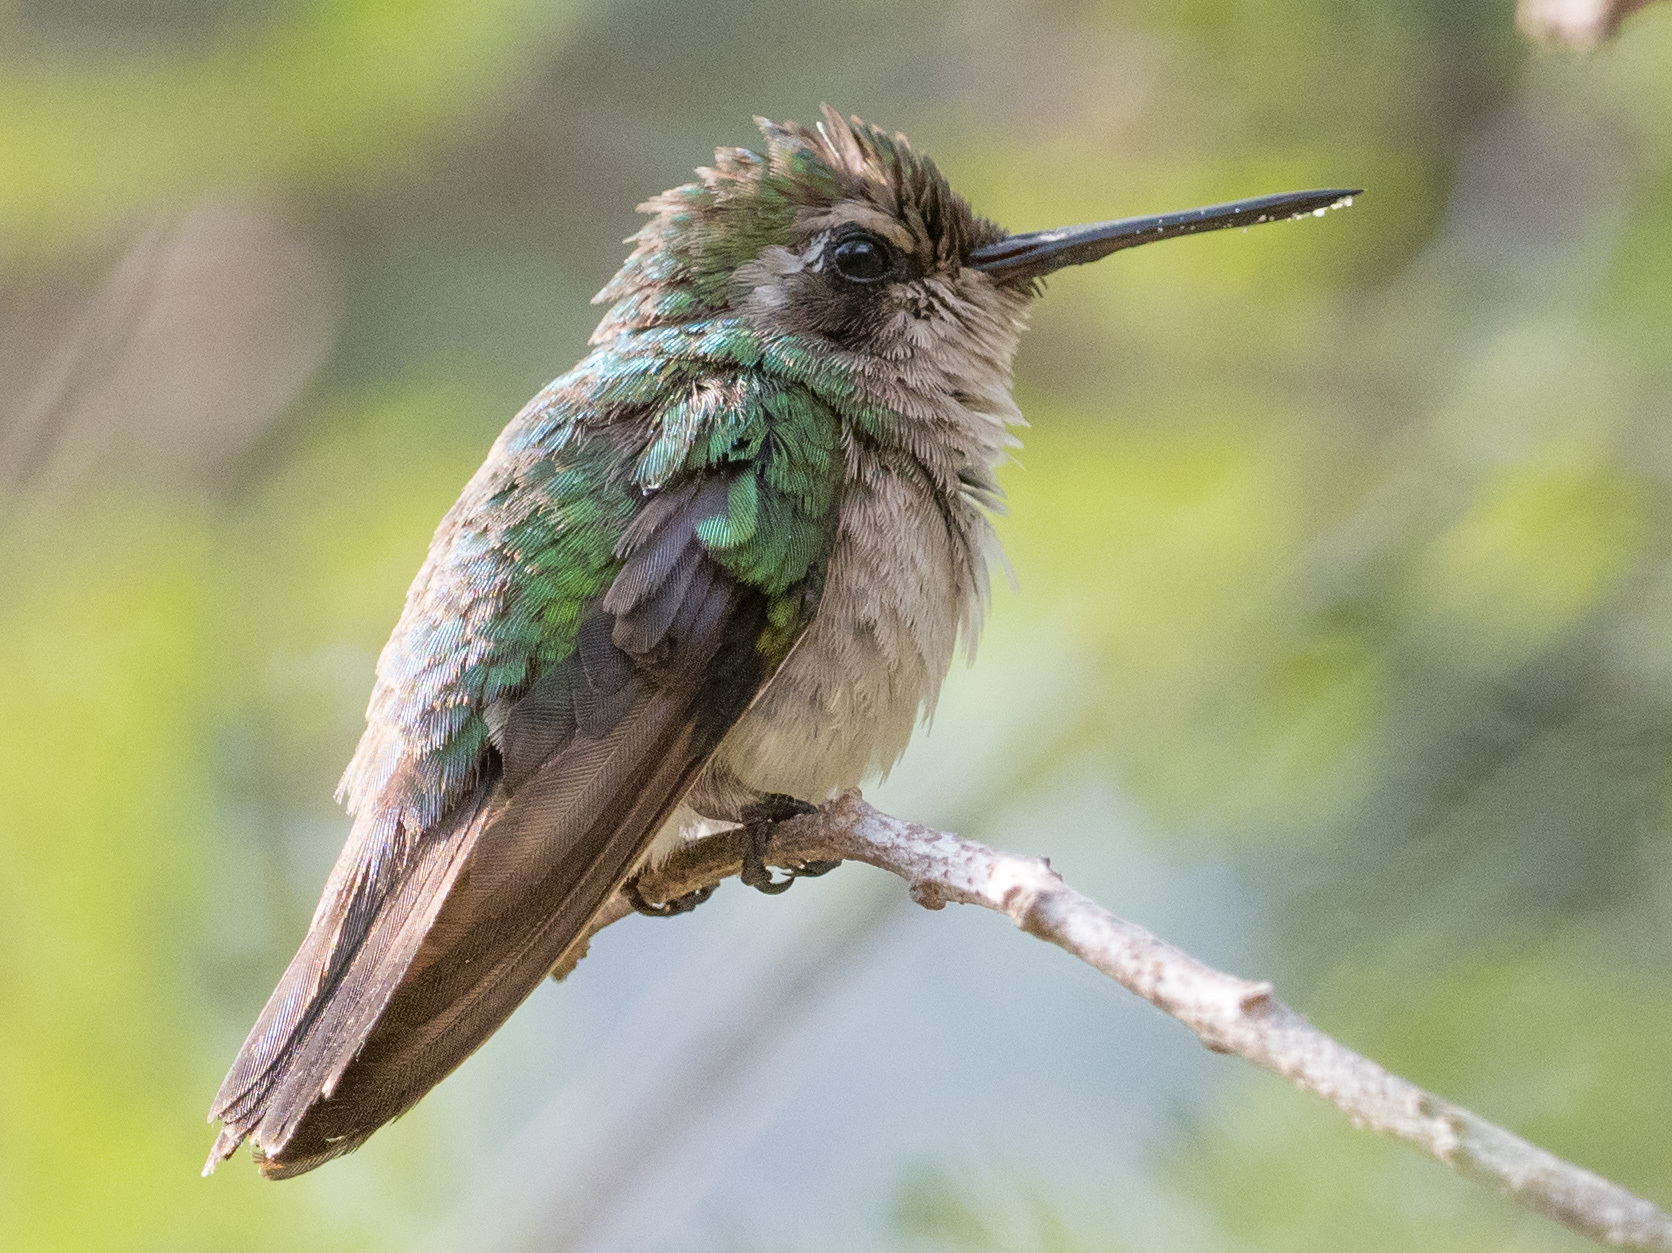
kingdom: Animalia
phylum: Chordata
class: Aves
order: Apodiformes
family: Trochilidae
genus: Chlorostilbon
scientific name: Chlorostilbon gibsoni
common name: Red-billed emerald
